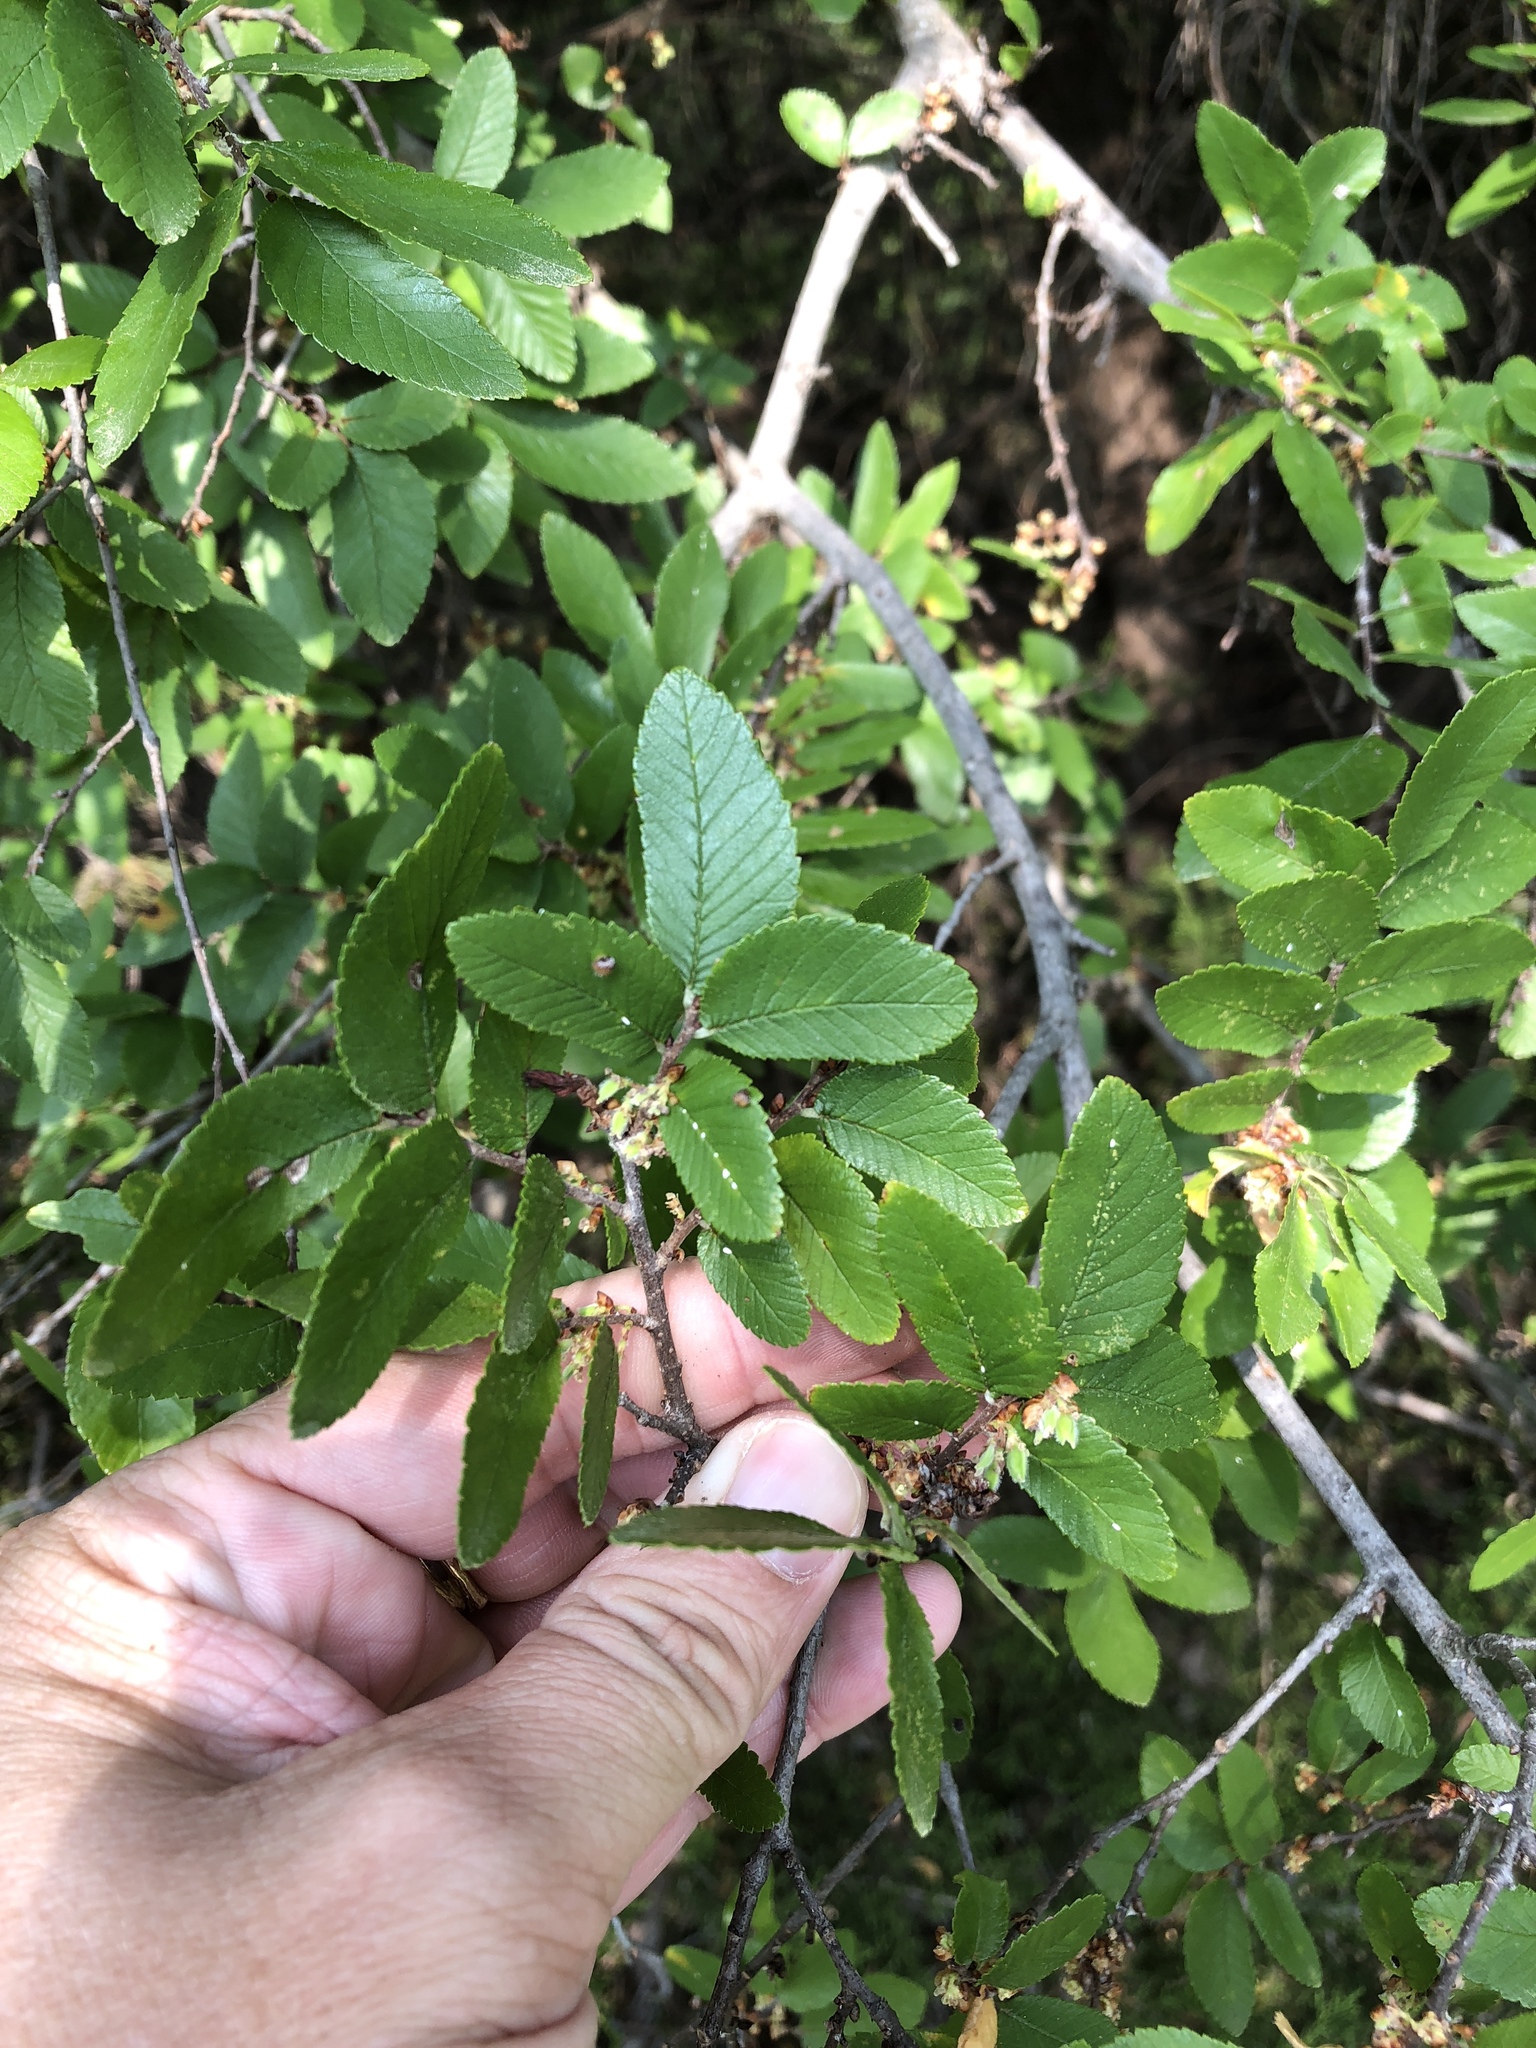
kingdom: Plantae
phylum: Tracheophyta
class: Magnoliopsida
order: Rosales
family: Ulmaceae
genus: Ulmus
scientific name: Ulmus crassifolia
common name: Basket elm
